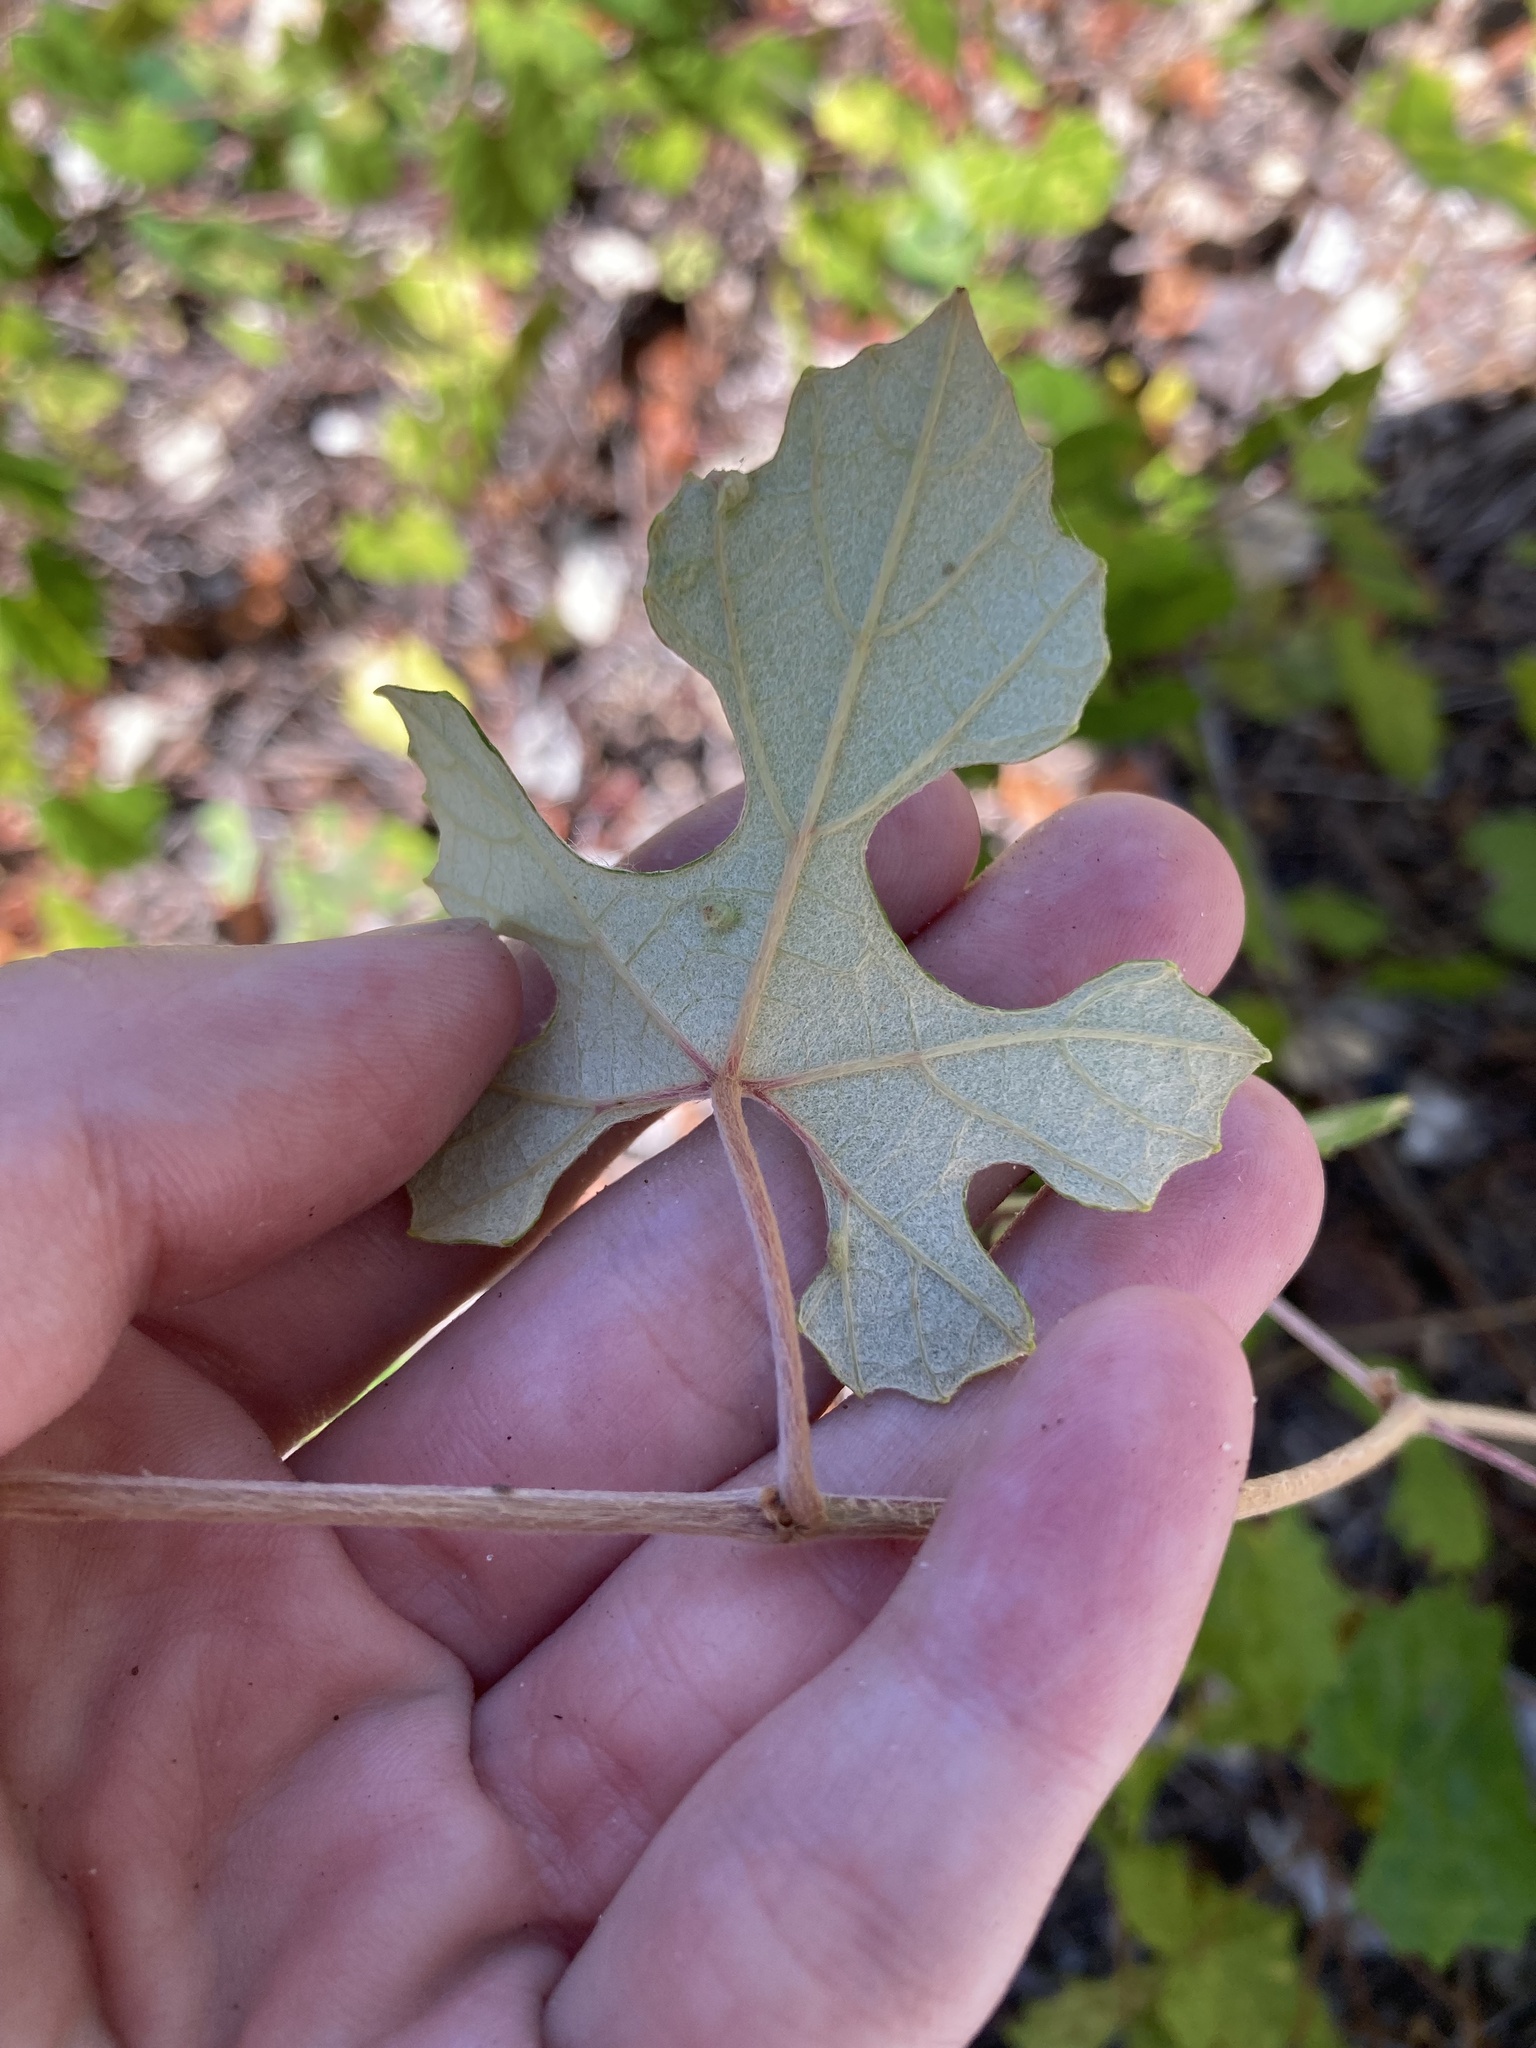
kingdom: Plantae
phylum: Tracheophyta
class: Magnoliopsida
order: Vitales
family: Vitaceae
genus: Vitis
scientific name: Vitis shuttleworthii
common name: Caloosa grape
